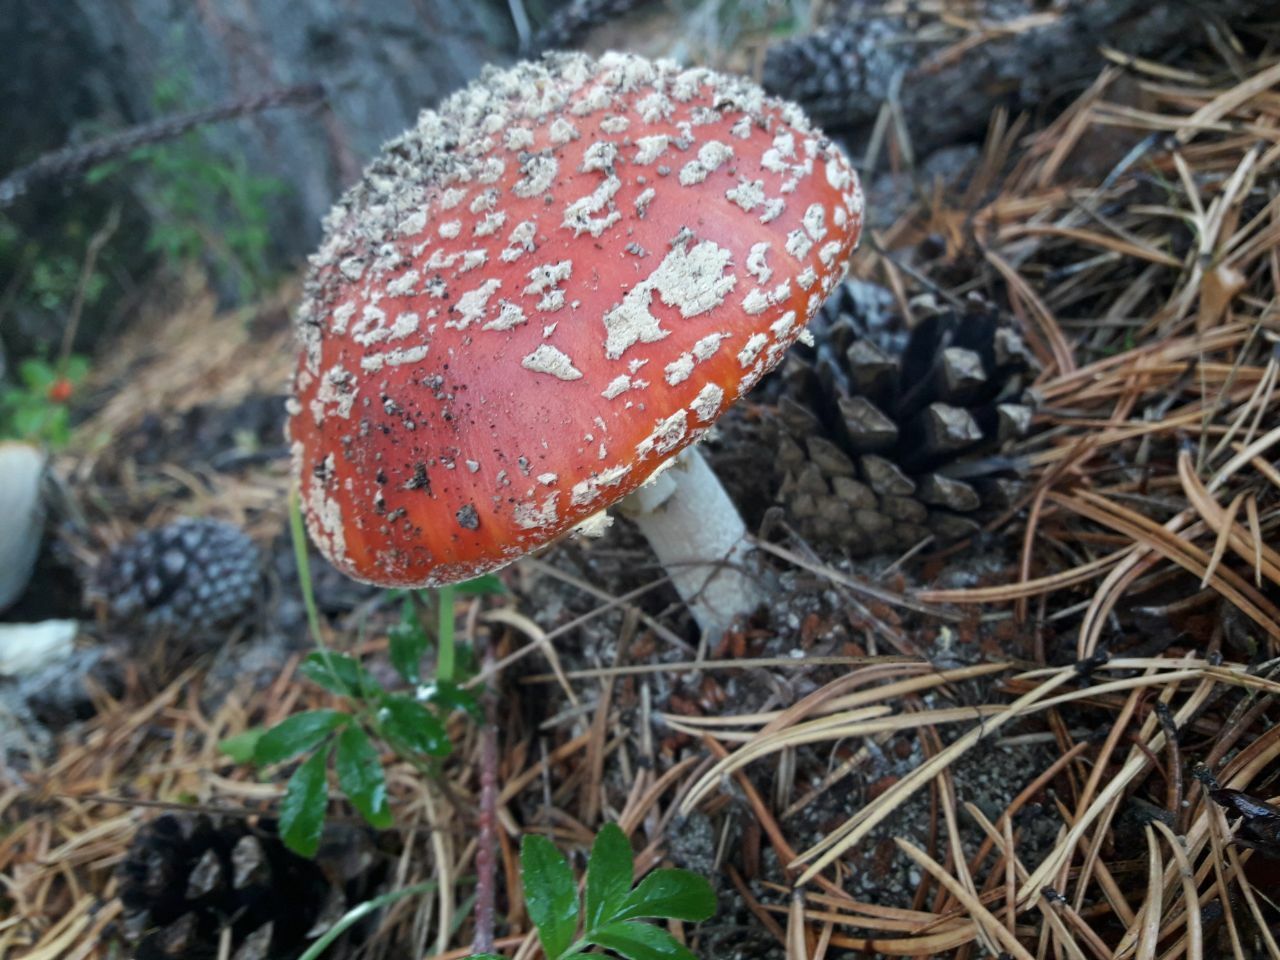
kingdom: Fungi
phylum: Basidiomycota
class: Agaricomycetes
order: Agaricales
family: Amanitaceae
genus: Amanita
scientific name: Amanita muscaria
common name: Fly agaric
